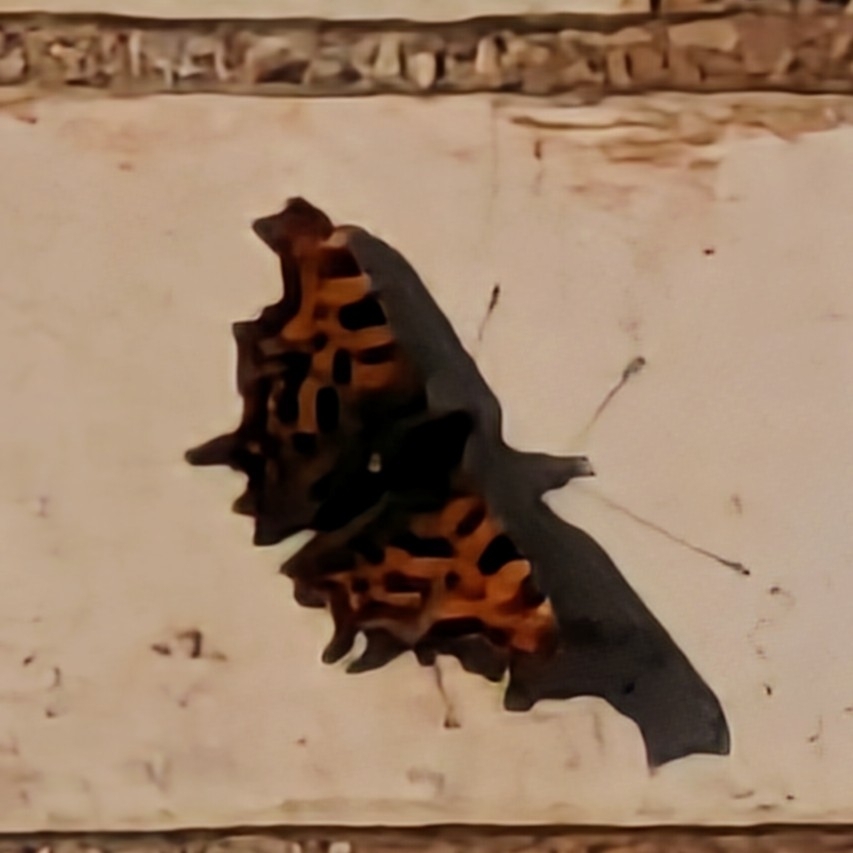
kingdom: Animalia
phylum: Arthropoda
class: Insecta
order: Lepidoptera
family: Nymphalidae
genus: Polygonia
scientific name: Polygonia c-album
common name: Comma
